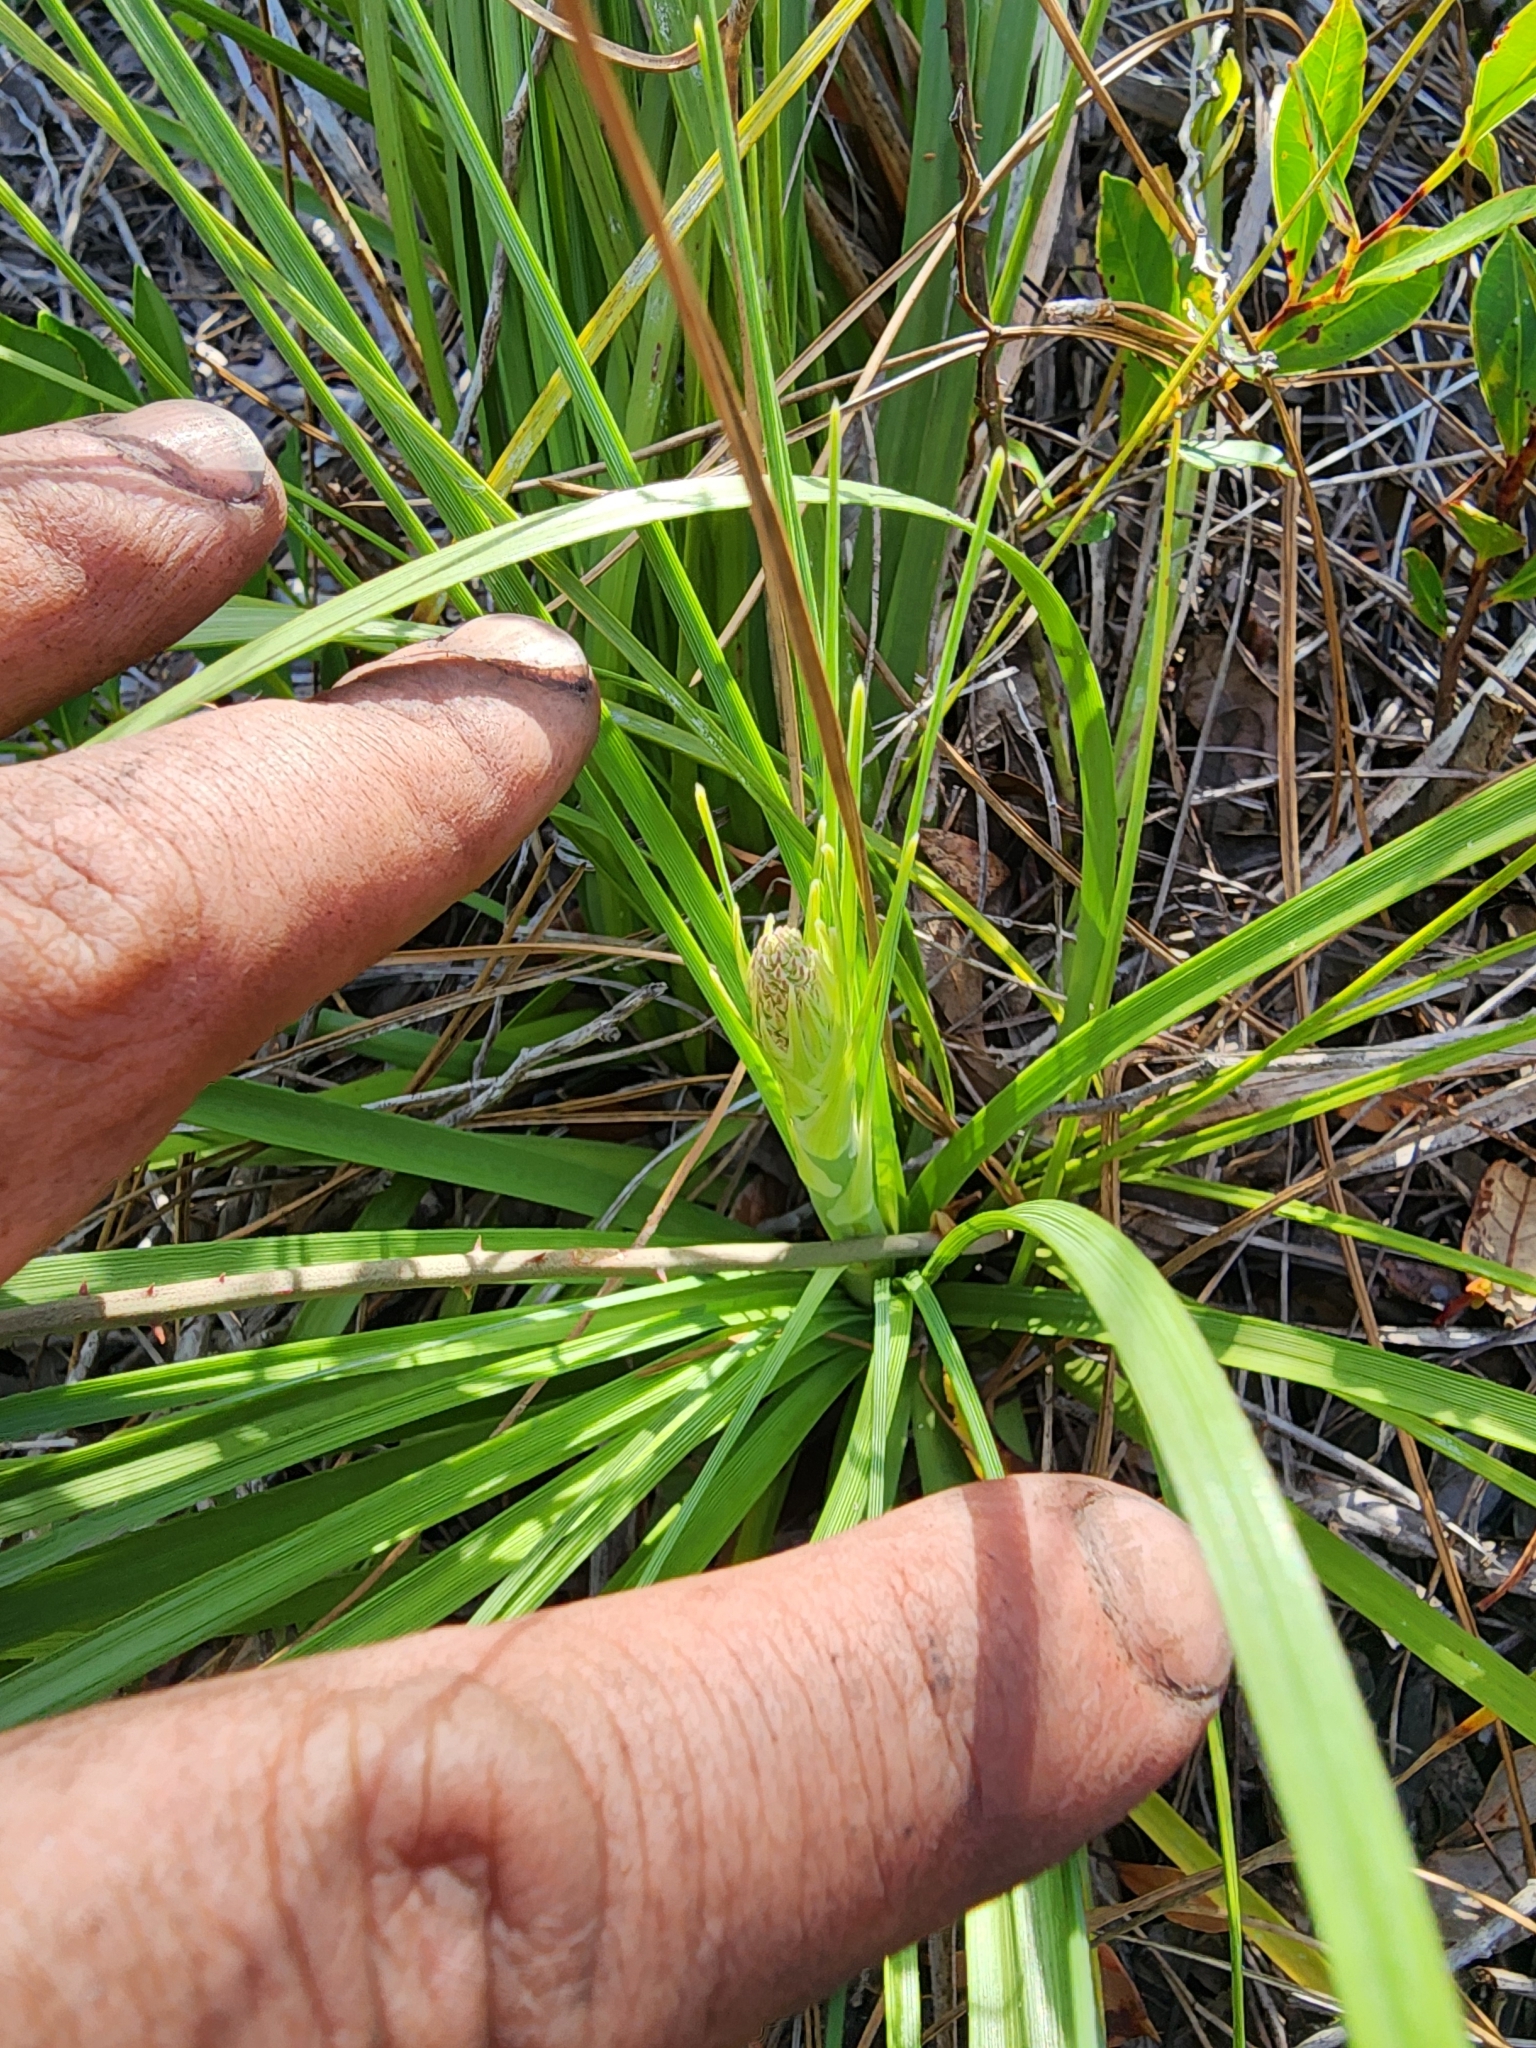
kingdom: Plantae
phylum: Tracheophyta
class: Liliopsida
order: Asparagales
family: Asparagaceae
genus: Nolina
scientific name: Nolina brittoniana
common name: Britton's bear-grass
